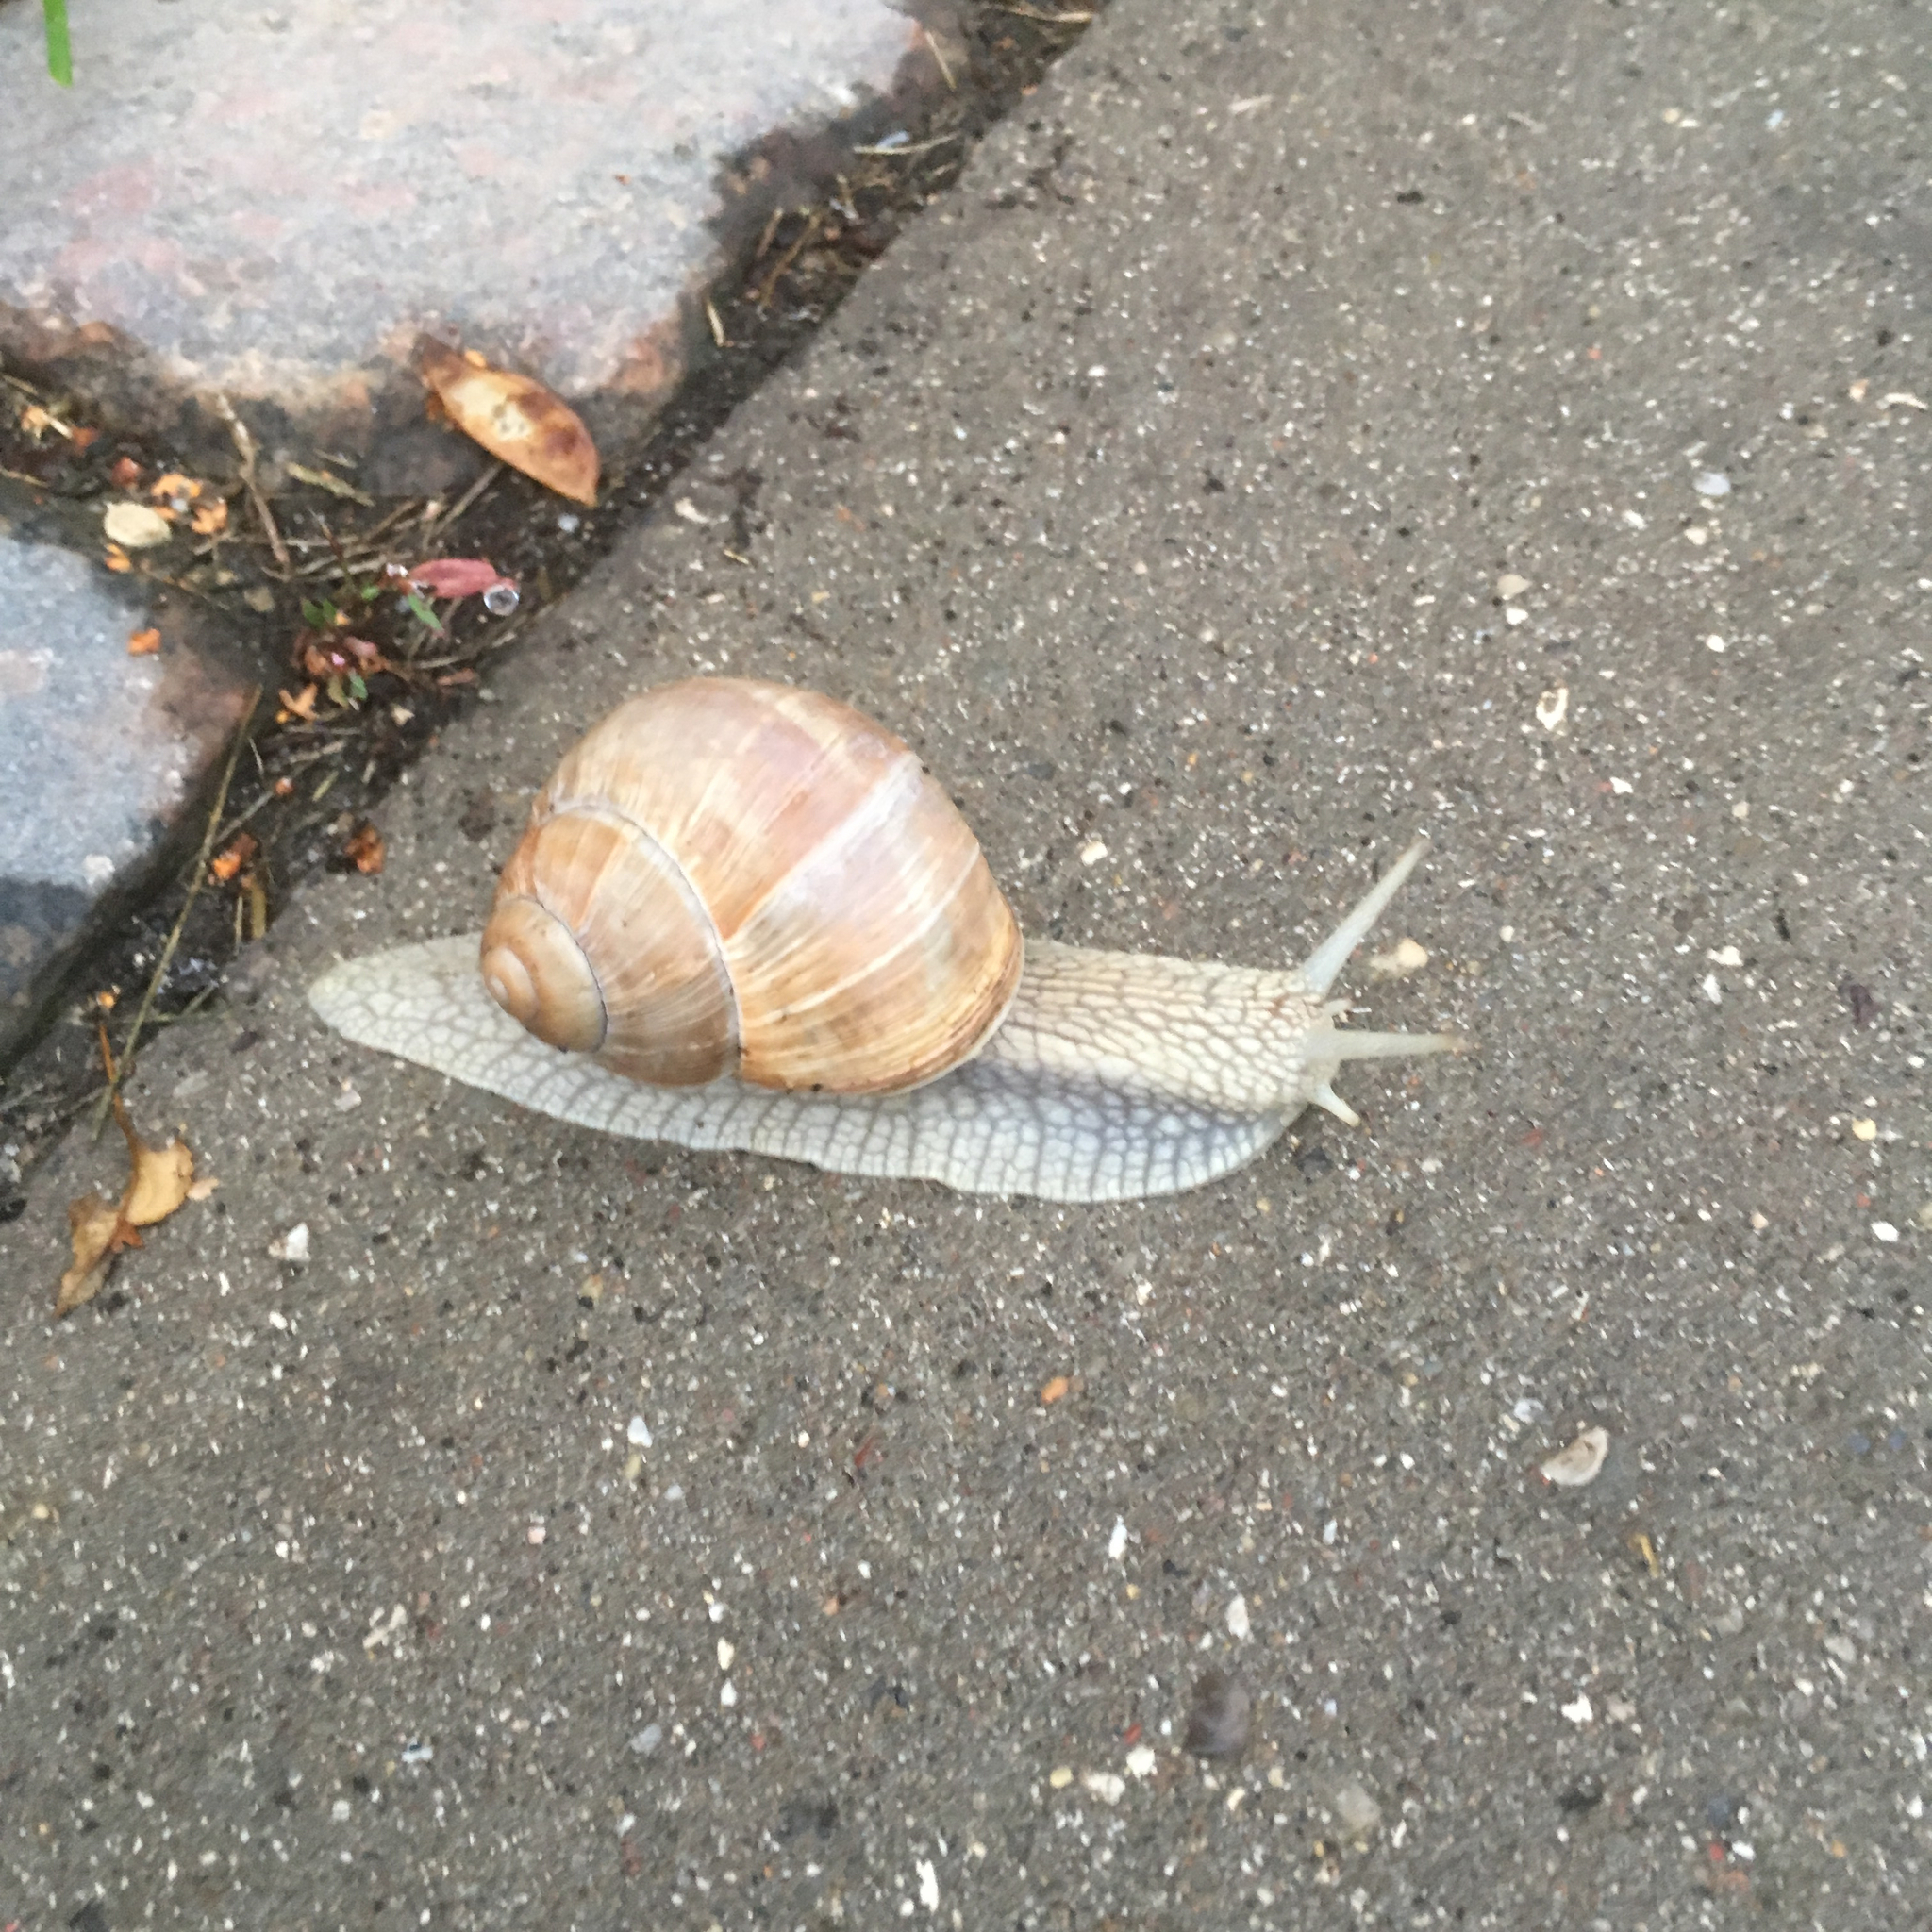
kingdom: Animalia
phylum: Mollusca
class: Gastropoda
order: Stylommatophora
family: Helicidae
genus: Helix
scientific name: Helix pomatia
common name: Roman snail
